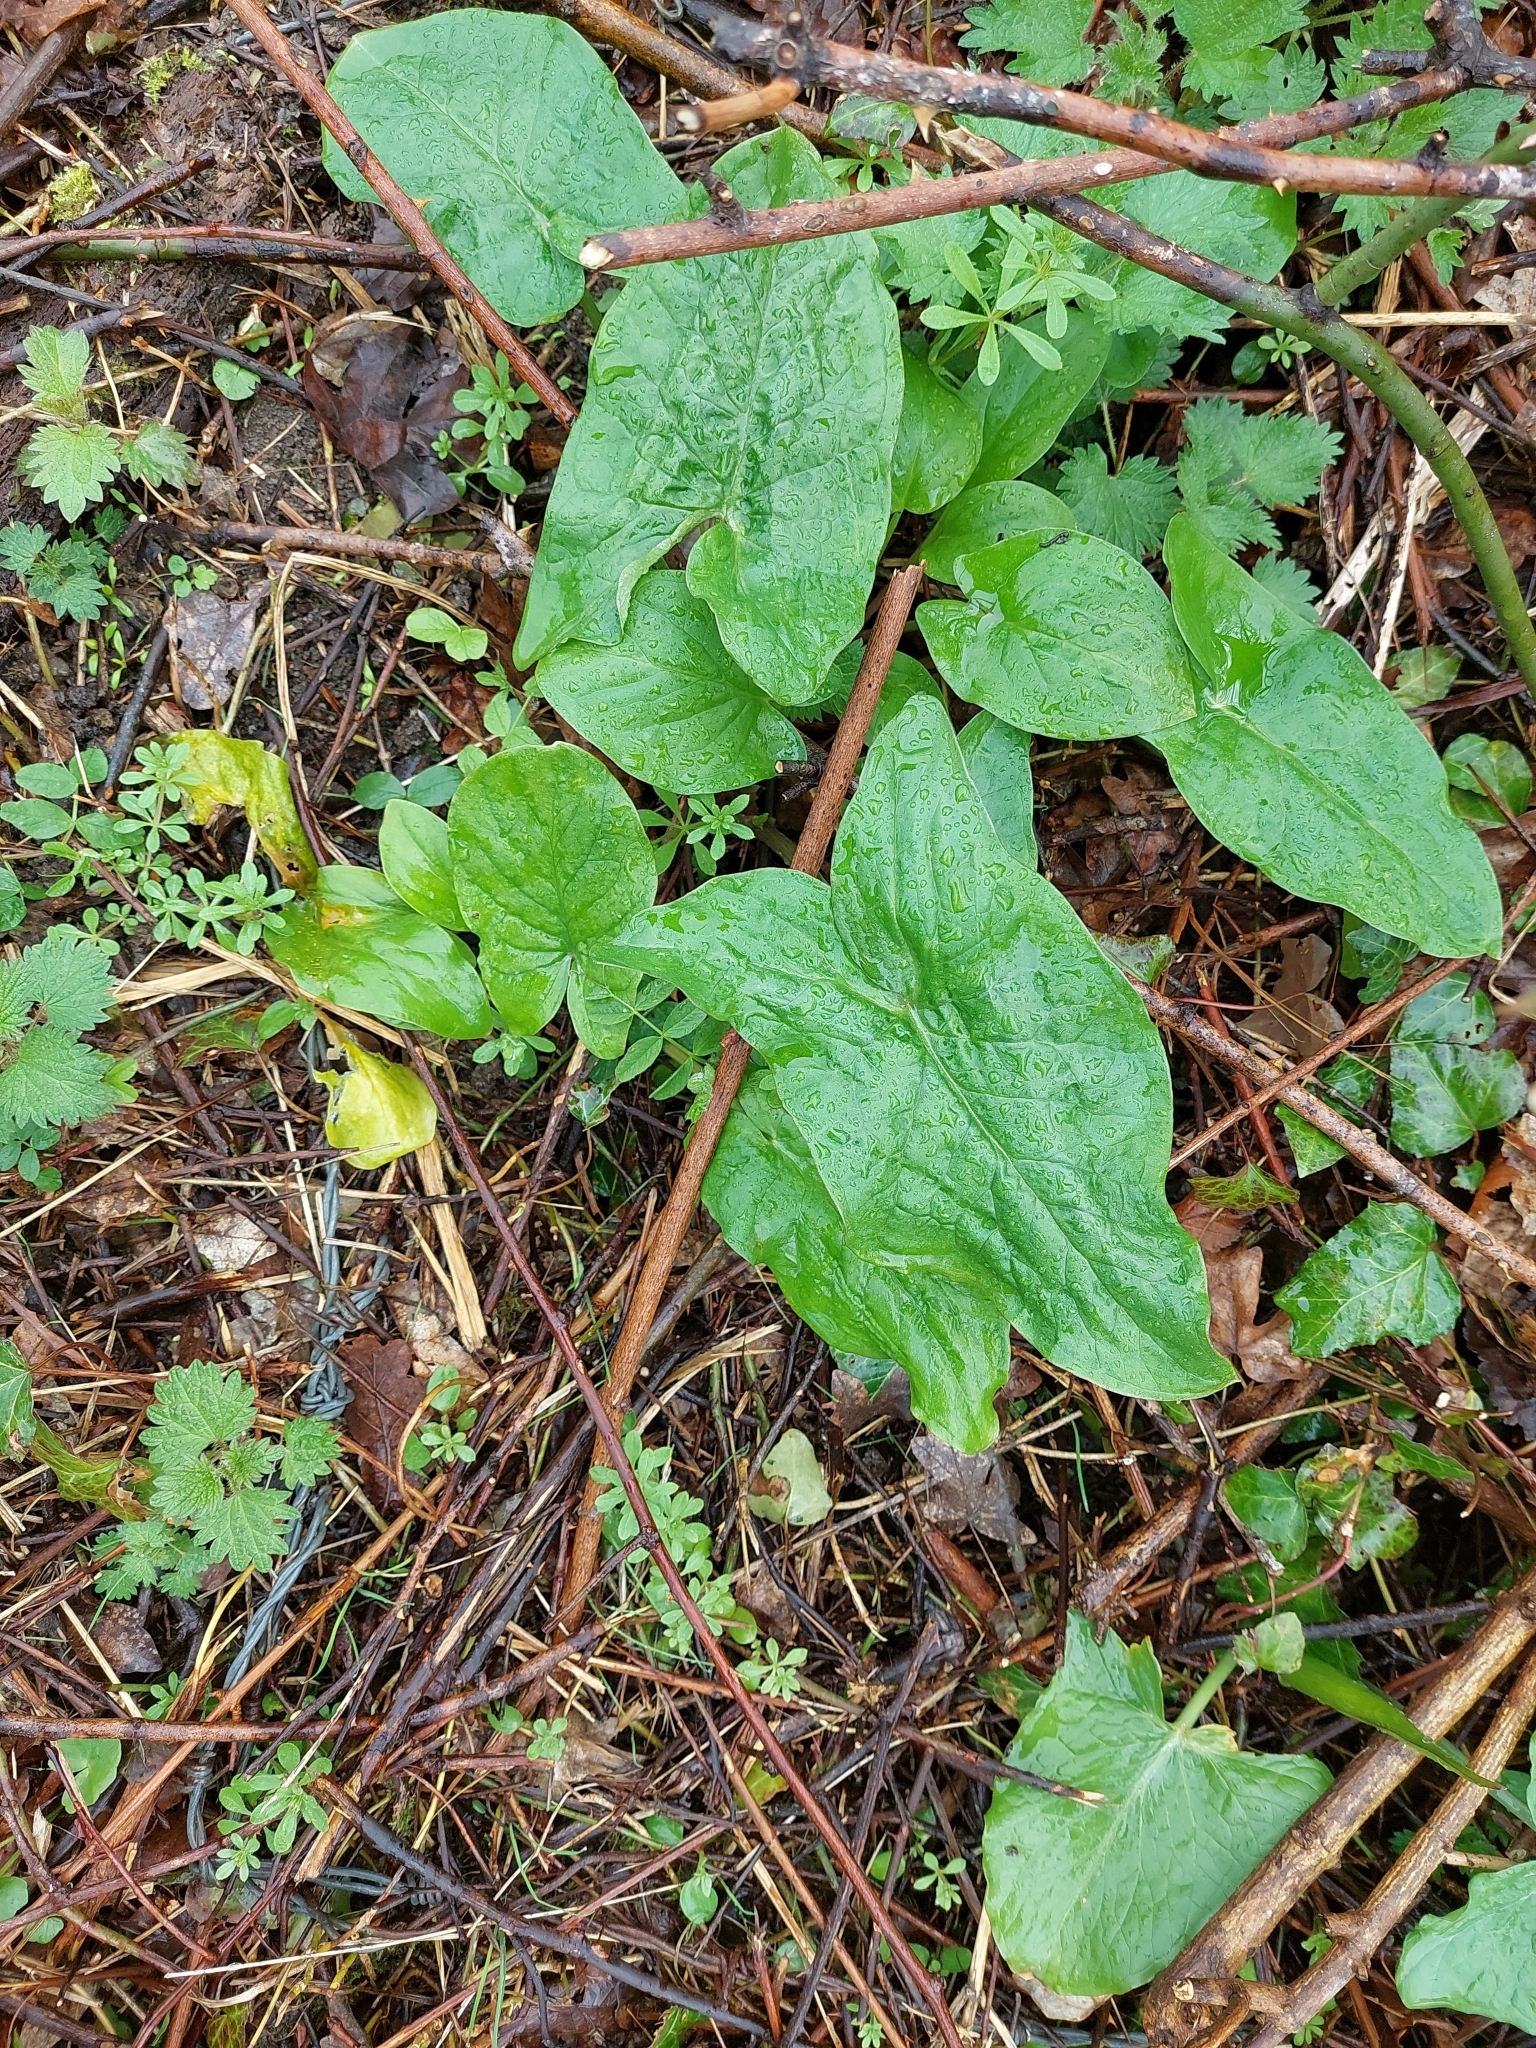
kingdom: Plantae
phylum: Tracheophyta
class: Liliopsida
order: Alismatales
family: Araceae
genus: Arum
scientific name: Arum maculatum
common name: Lords-and-ladies
